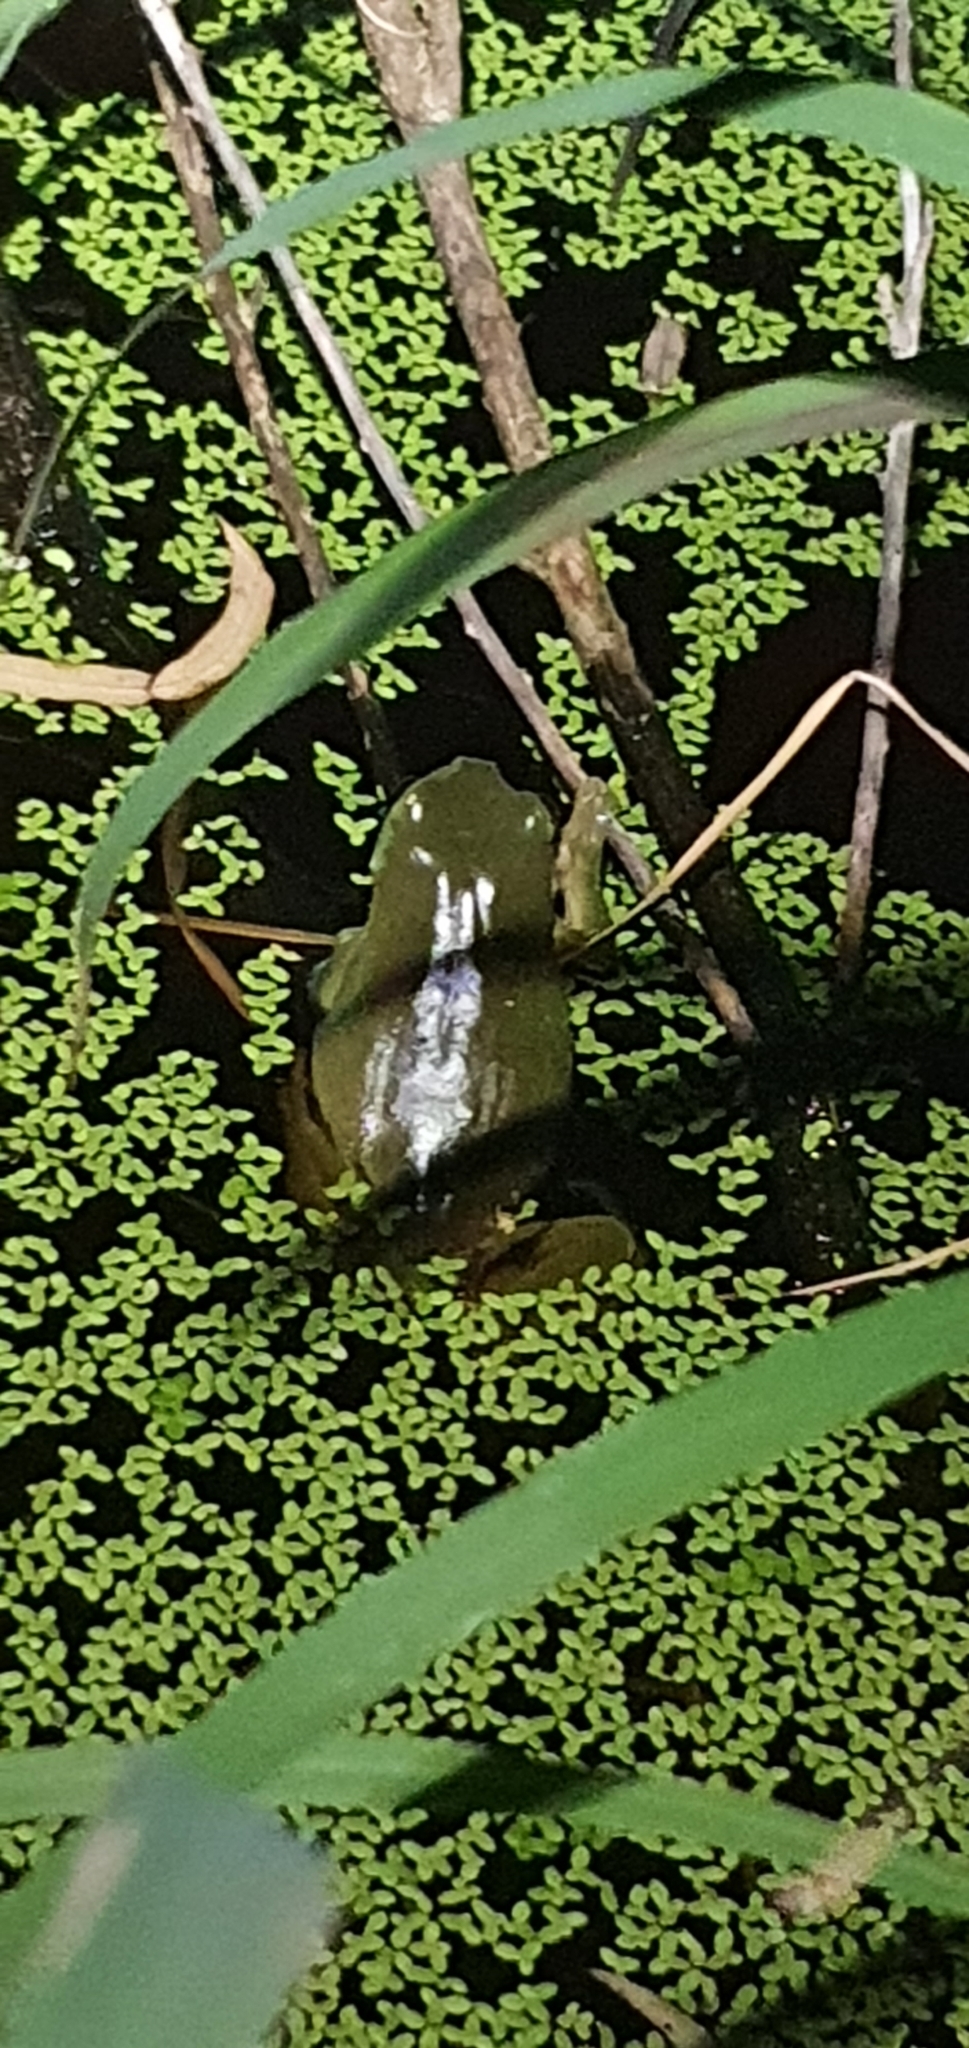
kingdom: Animalia
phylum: Chordata
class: Amphibia
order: Anura
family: Pelodryadidae
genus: Ranoidea
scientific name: Ranoidea caerulea
